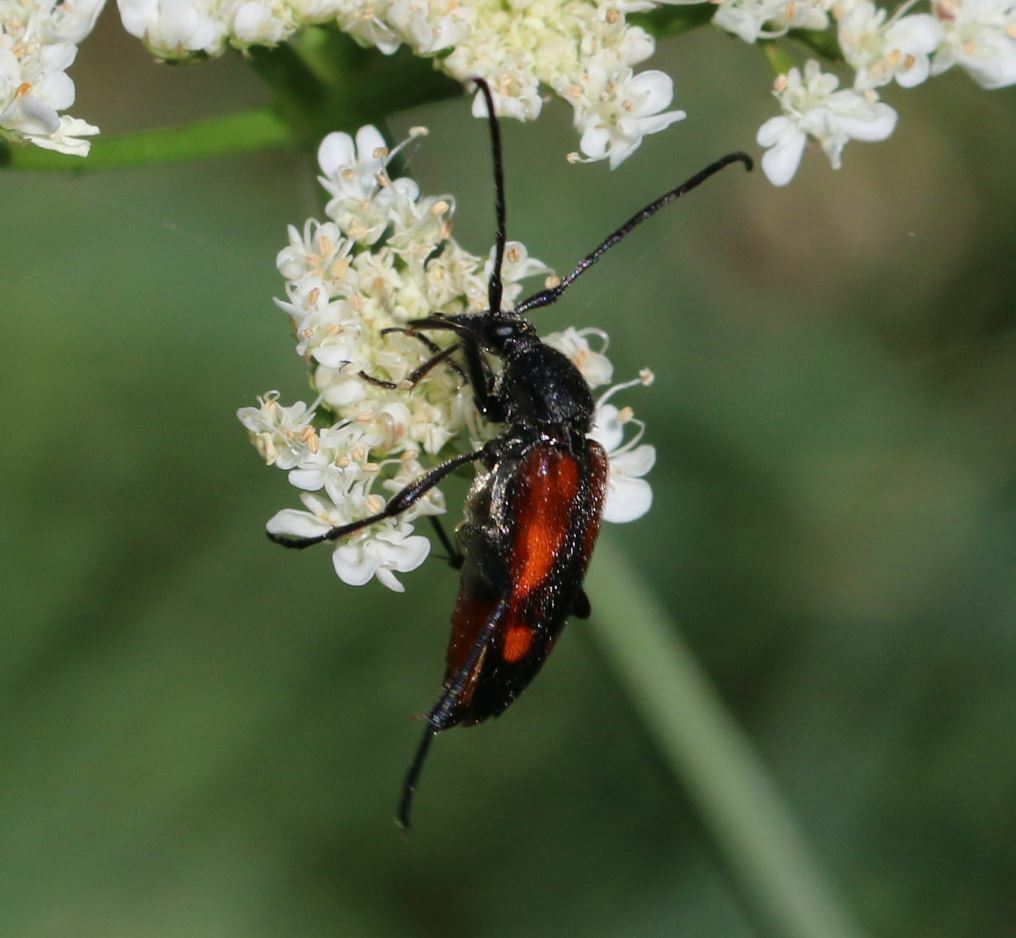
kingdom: Animalia
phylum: Arthropoda
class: Insecta
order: Coleoptera
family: Cerambycidae
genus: Stenurella
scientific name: Stenurella bifasciata
